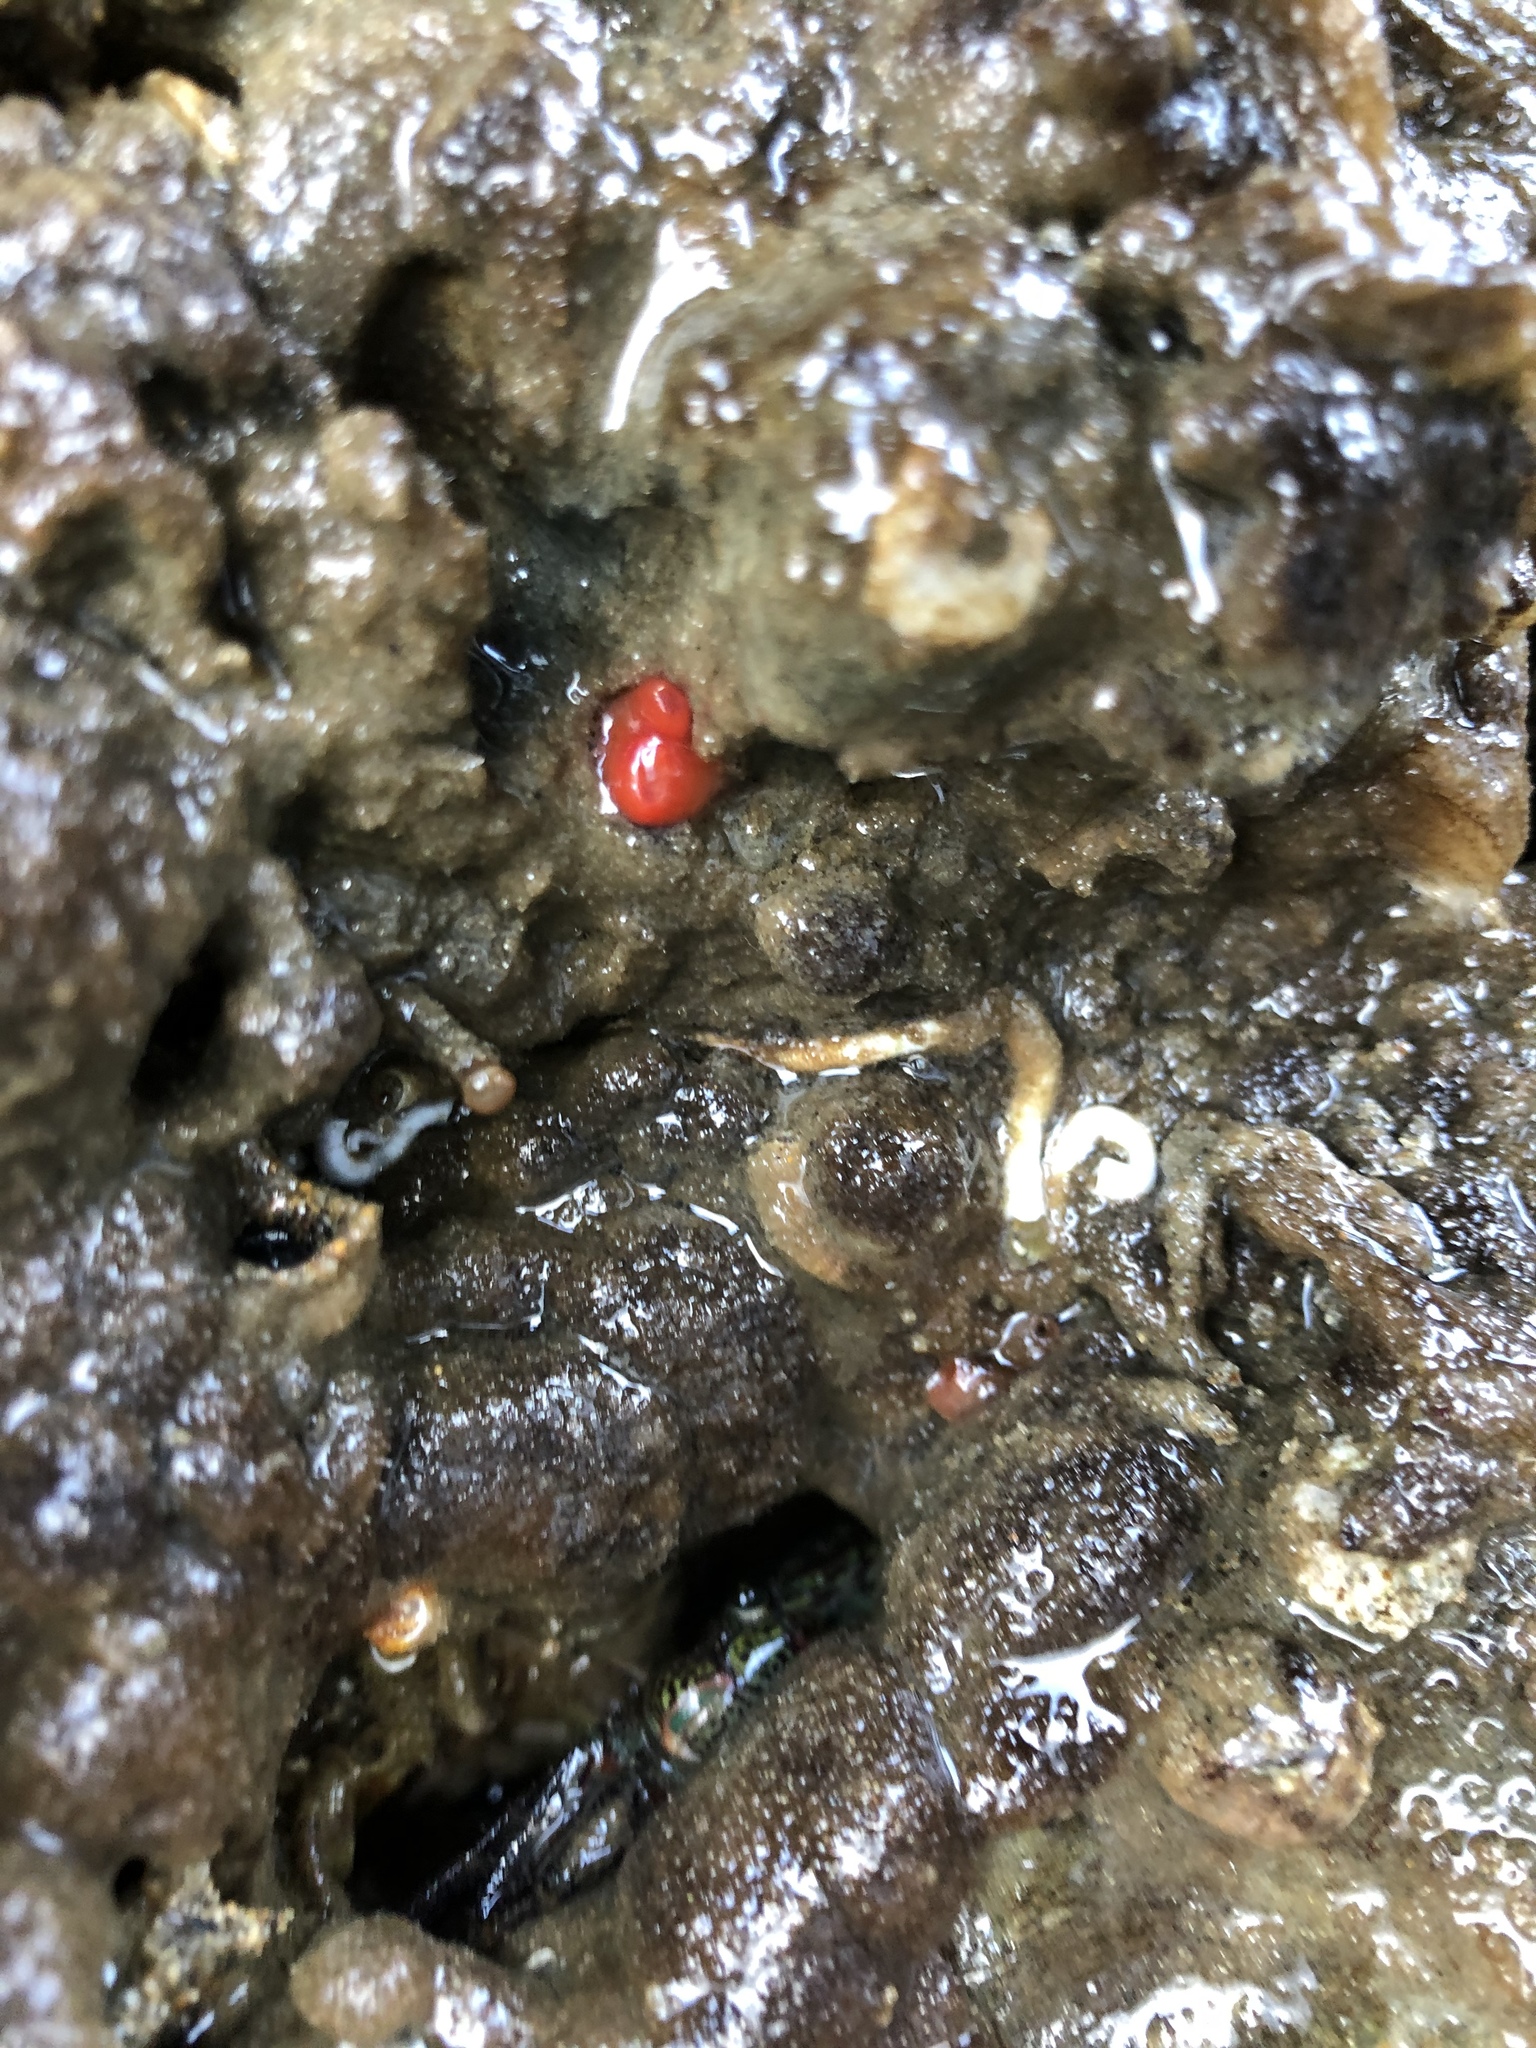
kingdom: Animalia
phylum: Mollusca
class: Bivalvia
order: Adapedonta
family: Hiatellidae
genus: Hiatella
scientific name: Hiatella arctica
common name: Arctic hiatella
